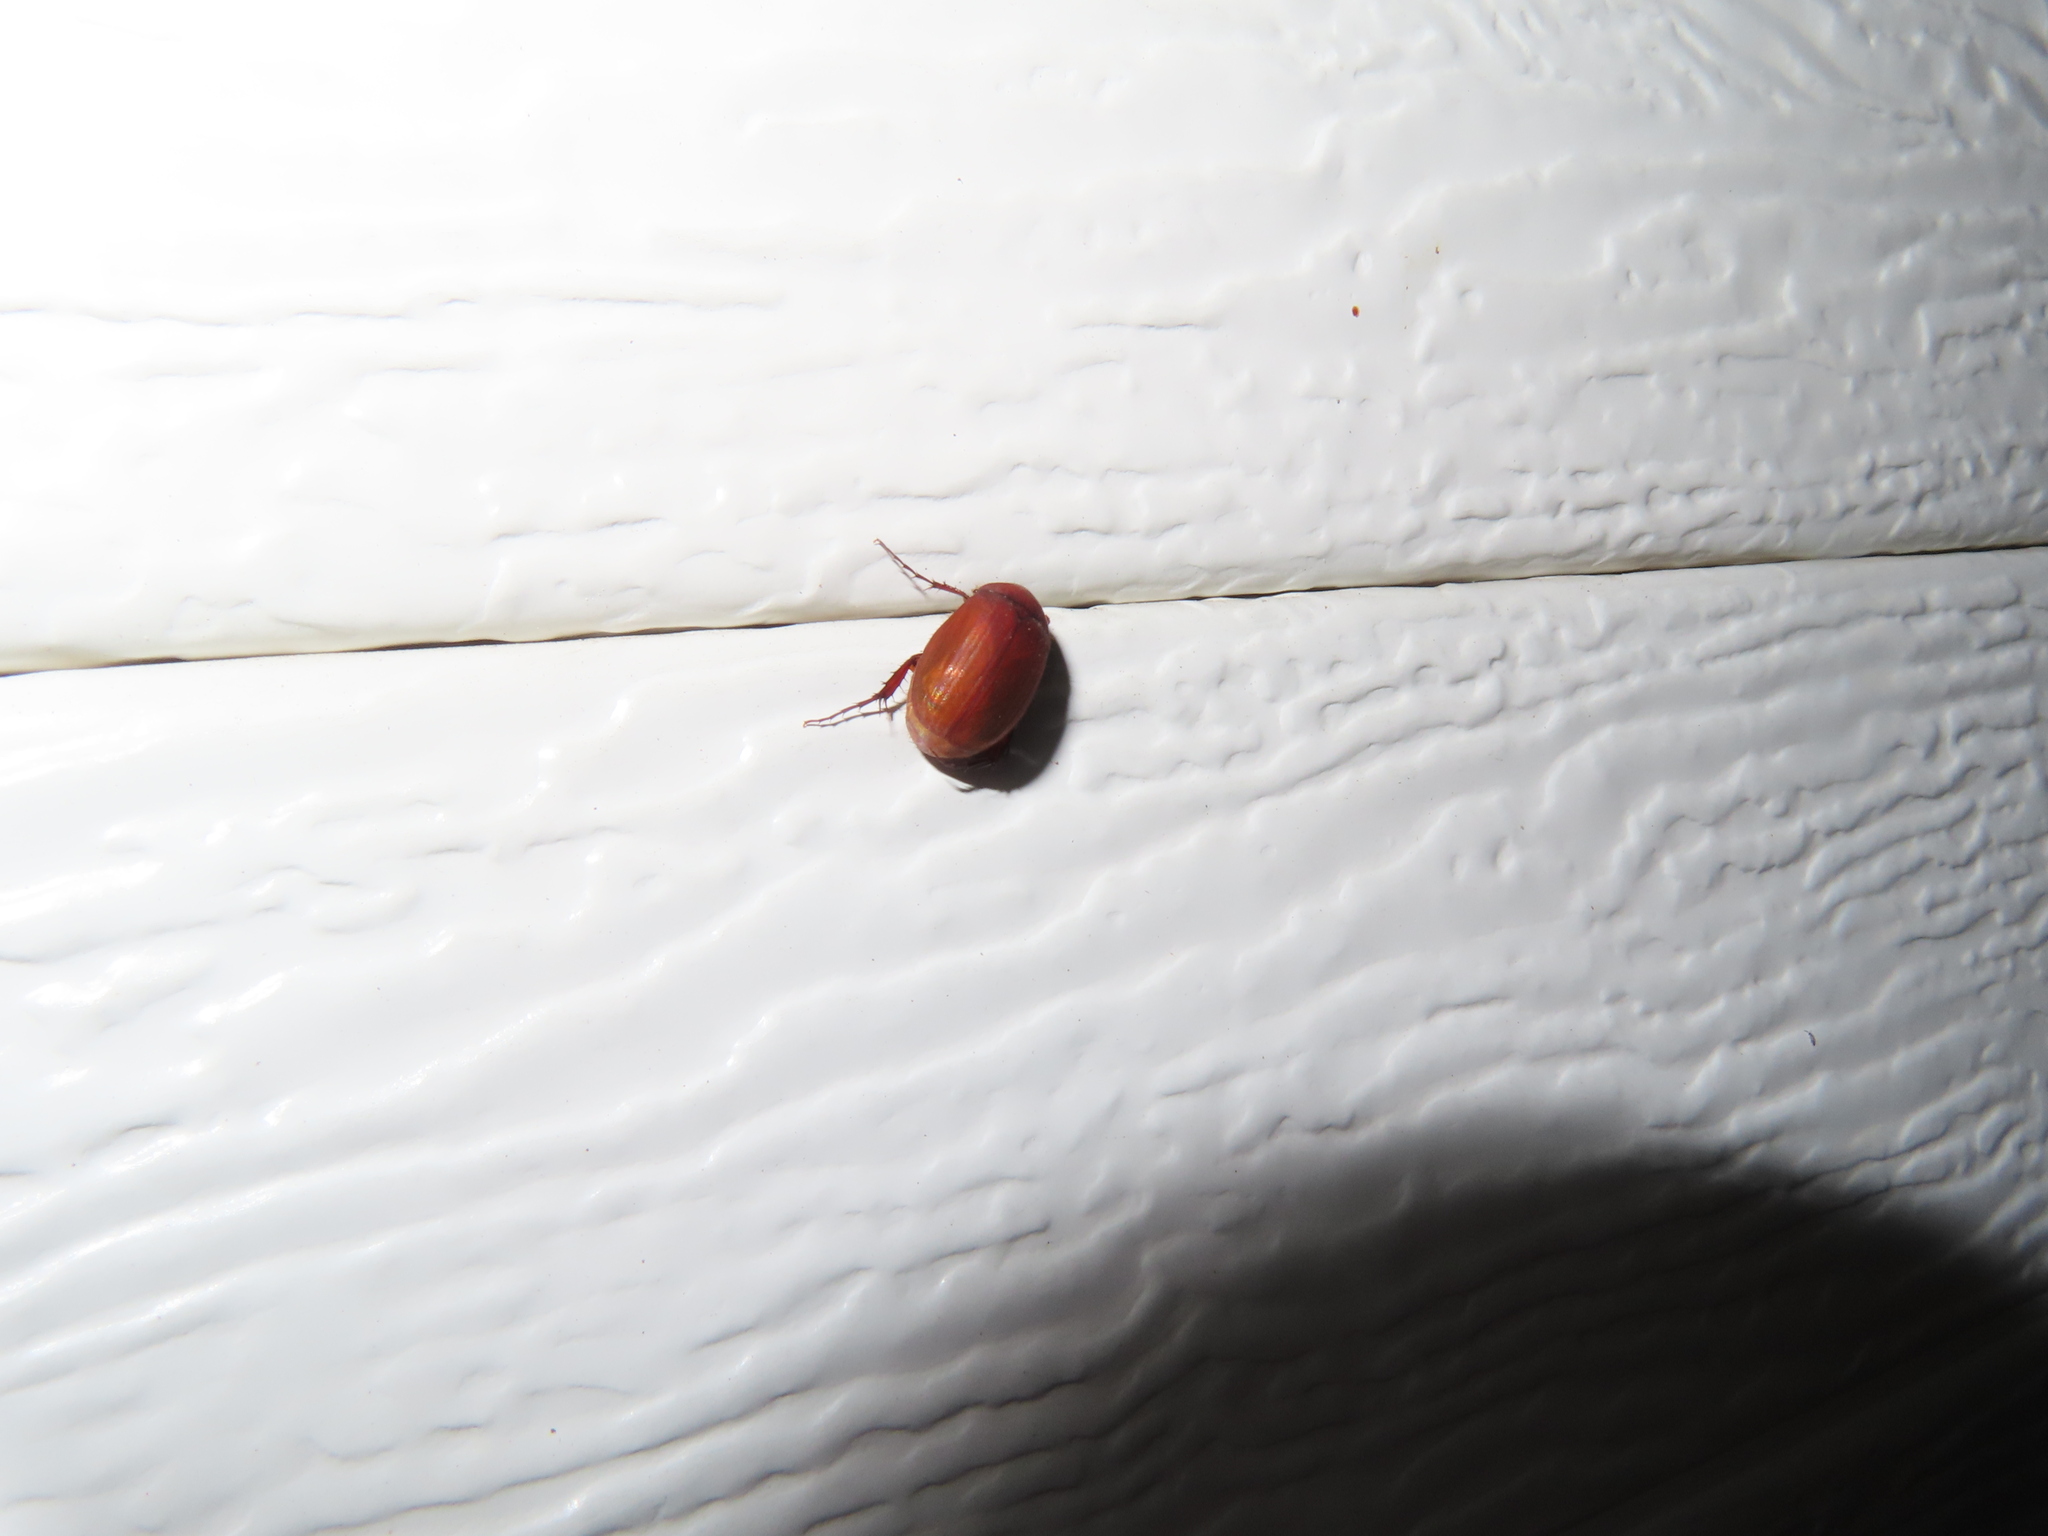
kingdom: Animalia
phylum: Arthropoda
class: Insecta
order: Coleoptera
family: Scarabaeidae
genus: Maladera
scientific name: Maladera formosae
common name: Asiatic garden beetle
